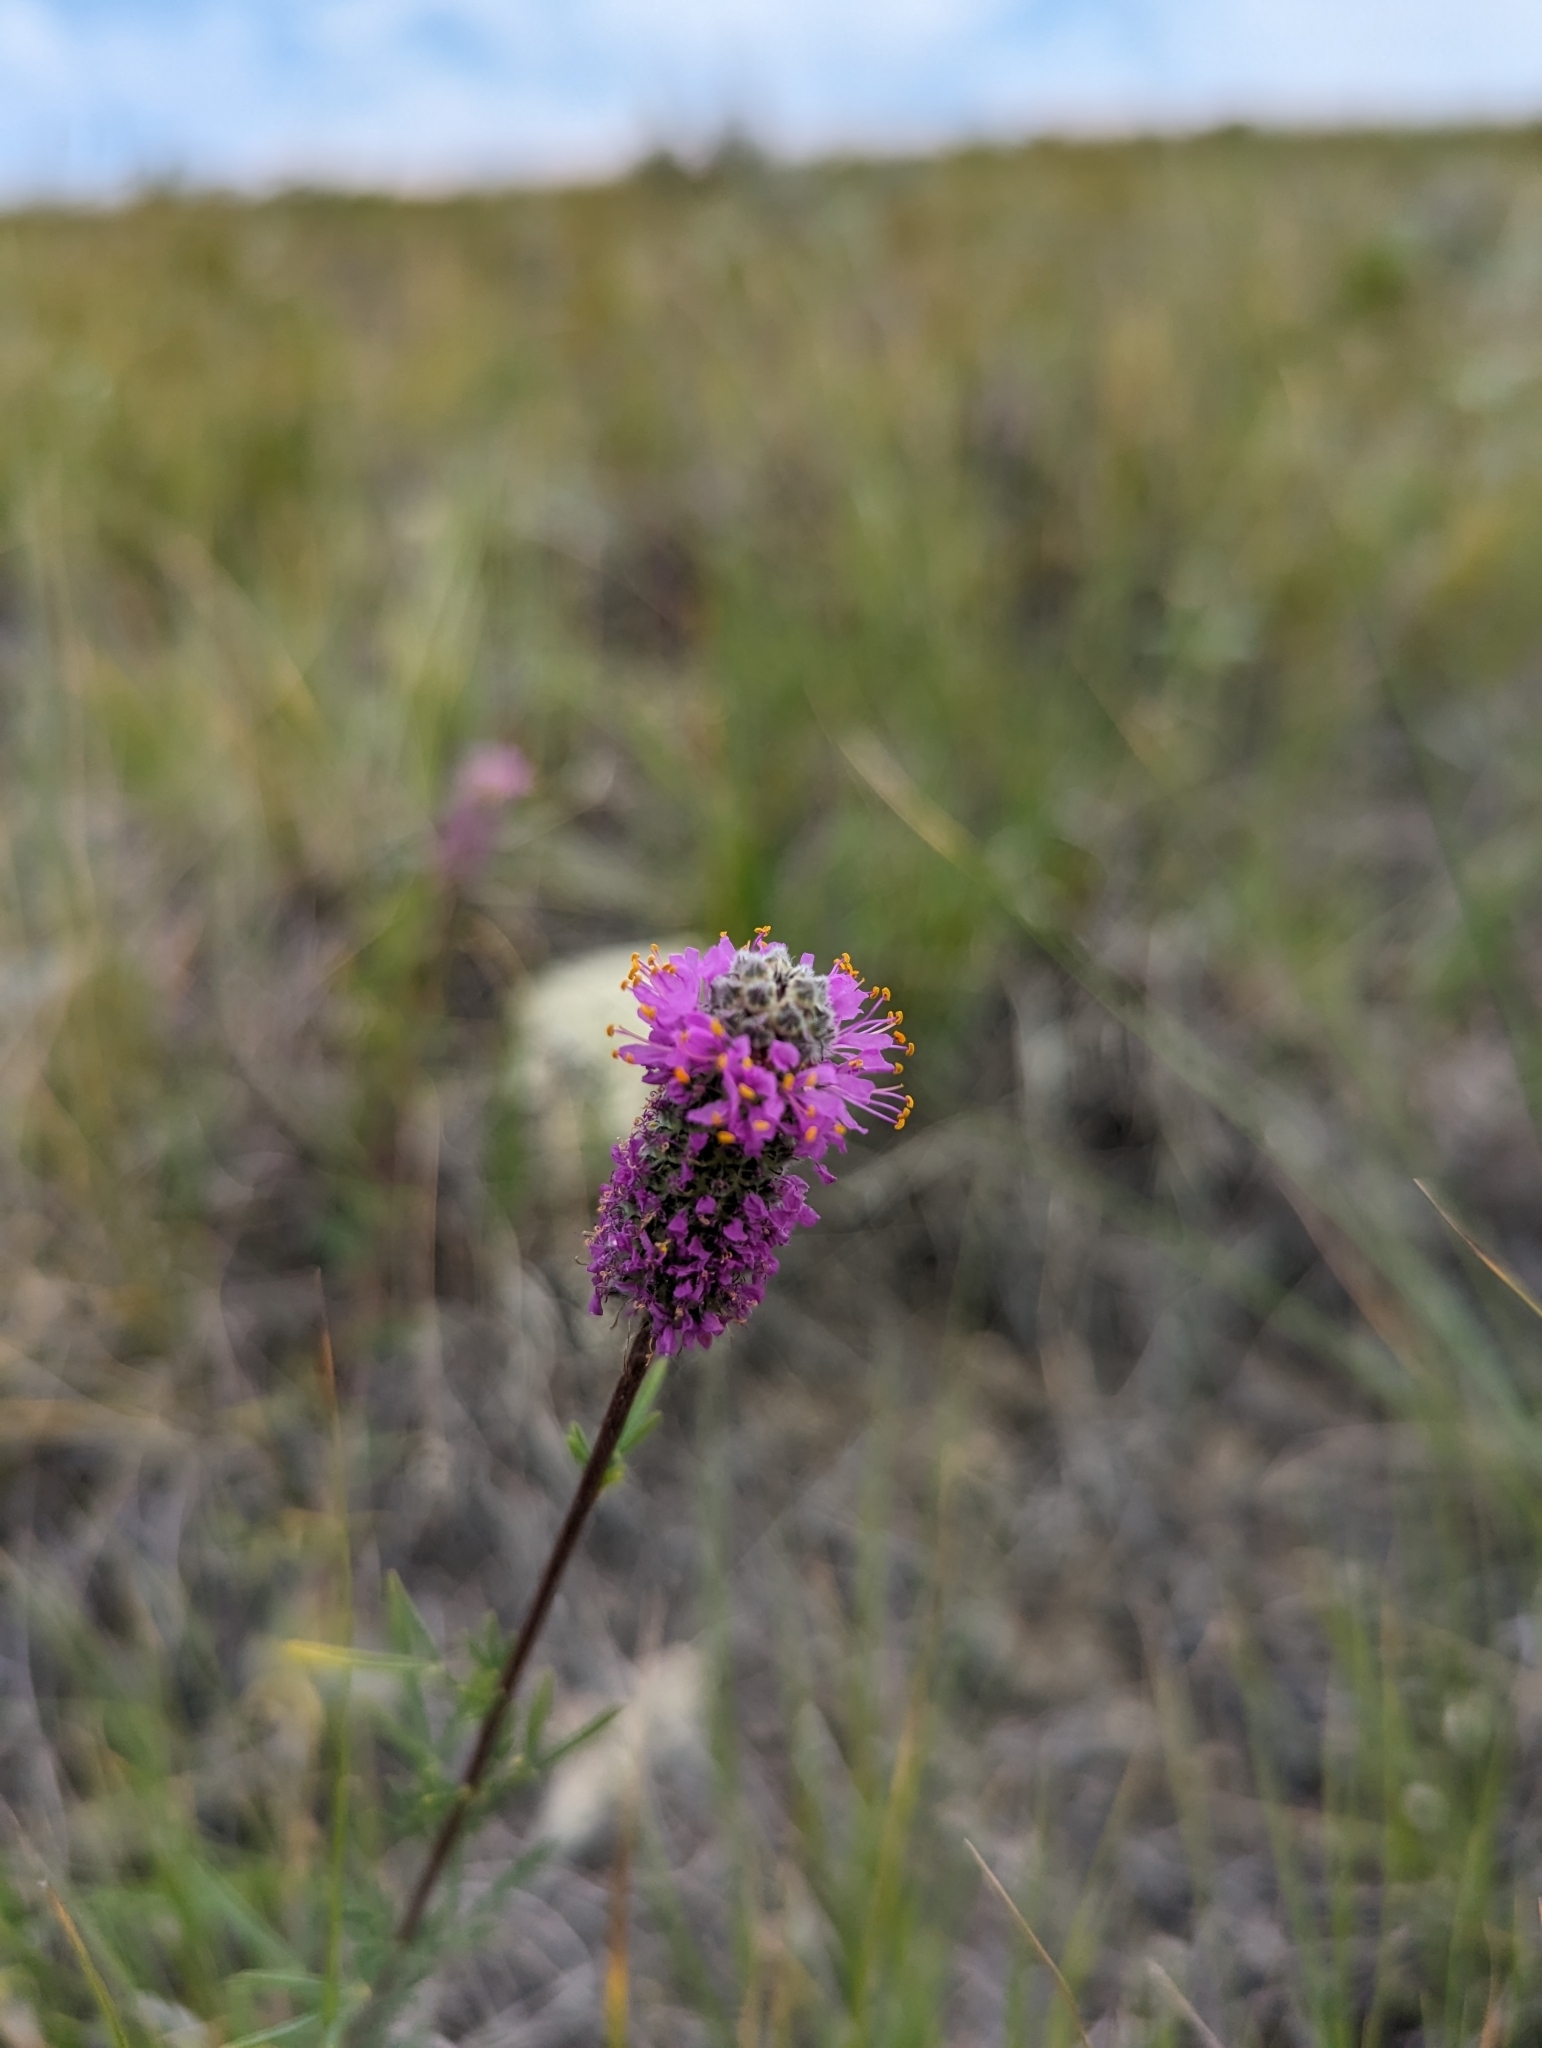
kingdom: Plantae
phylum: Tracheophyta
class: Magnoliopsida
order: Fabales
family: Fabaceae
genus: Dalea
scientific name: Dalea purpurea
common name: Purple prairie-clover
